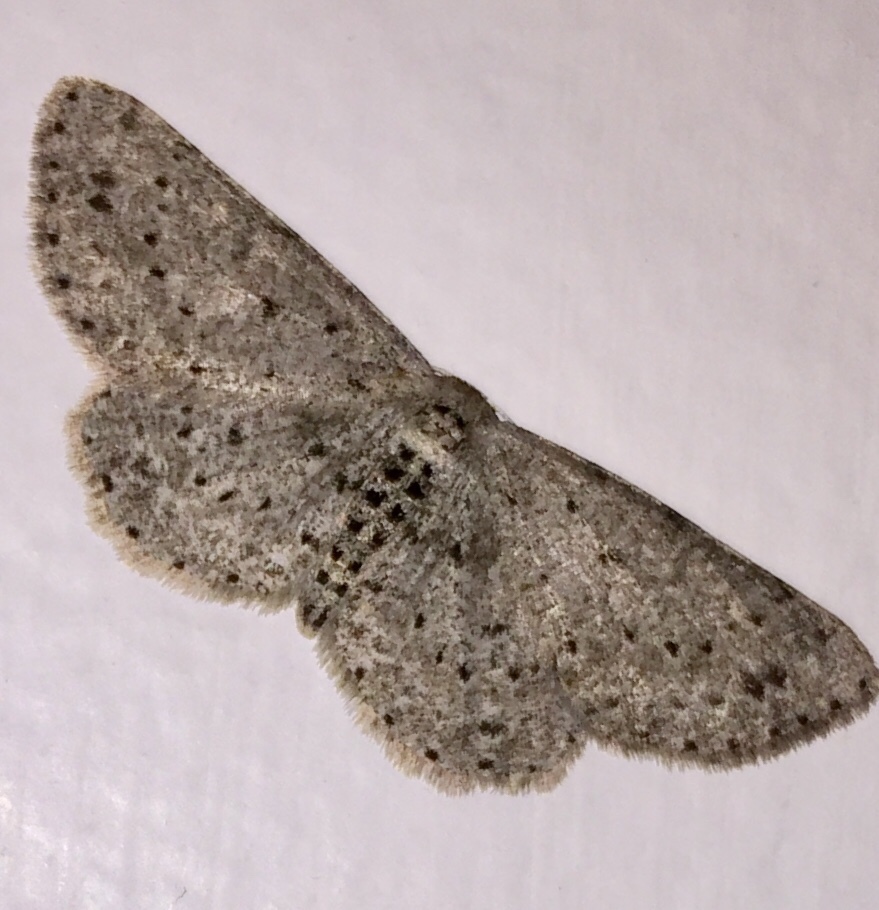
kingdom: Animalia
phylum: Arthropoda
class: Insecta
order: Lepidoptera
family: Geometridae
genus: Glena
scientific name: Glena cribrataria
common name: Dotted gray
